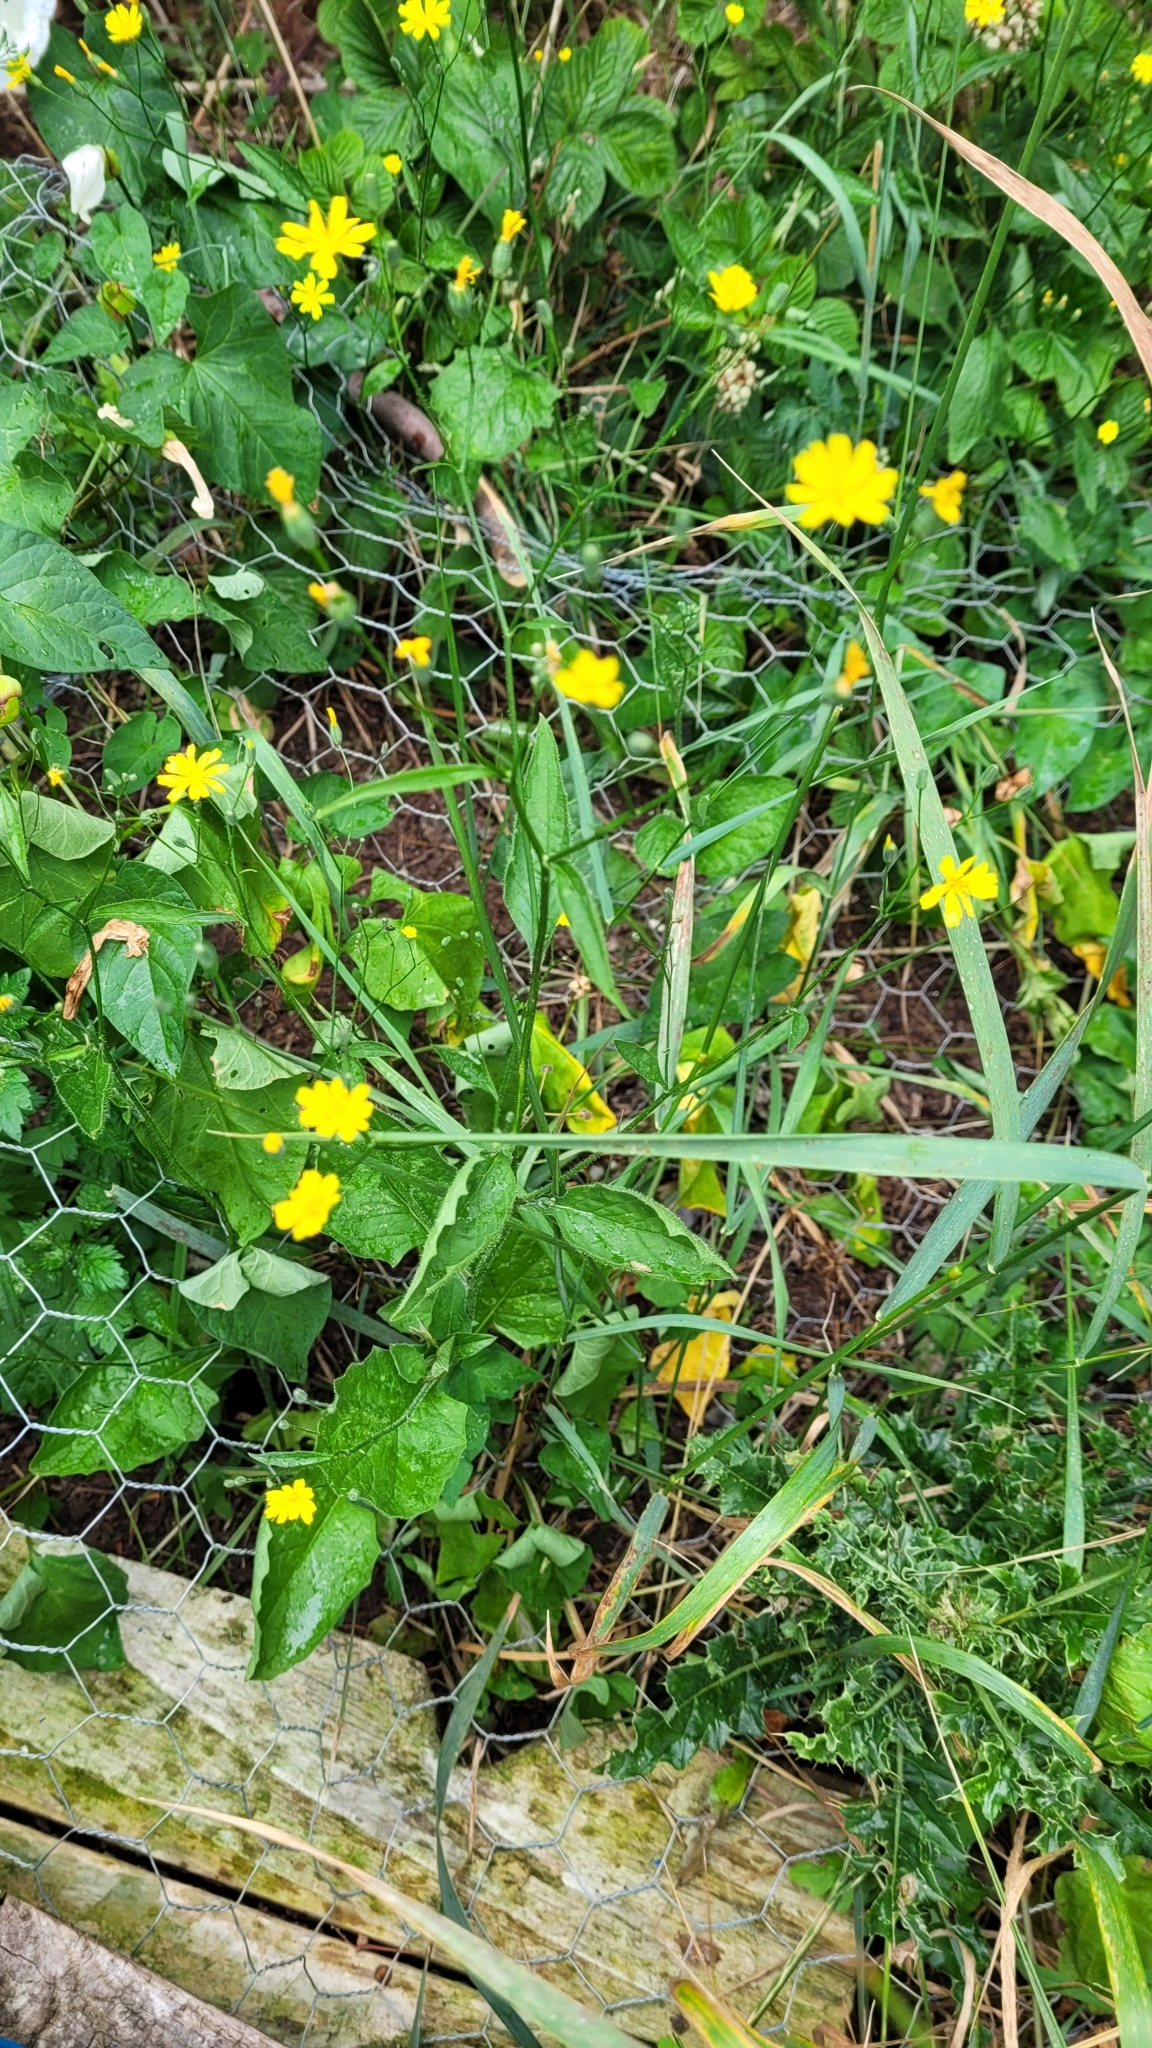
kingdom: Plantae
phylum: Tracheophyta
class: Magnoliopsida
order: Asterales
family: Asteraceae
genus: Lapsana
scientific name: Lapsana communis
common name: Nipplewort
